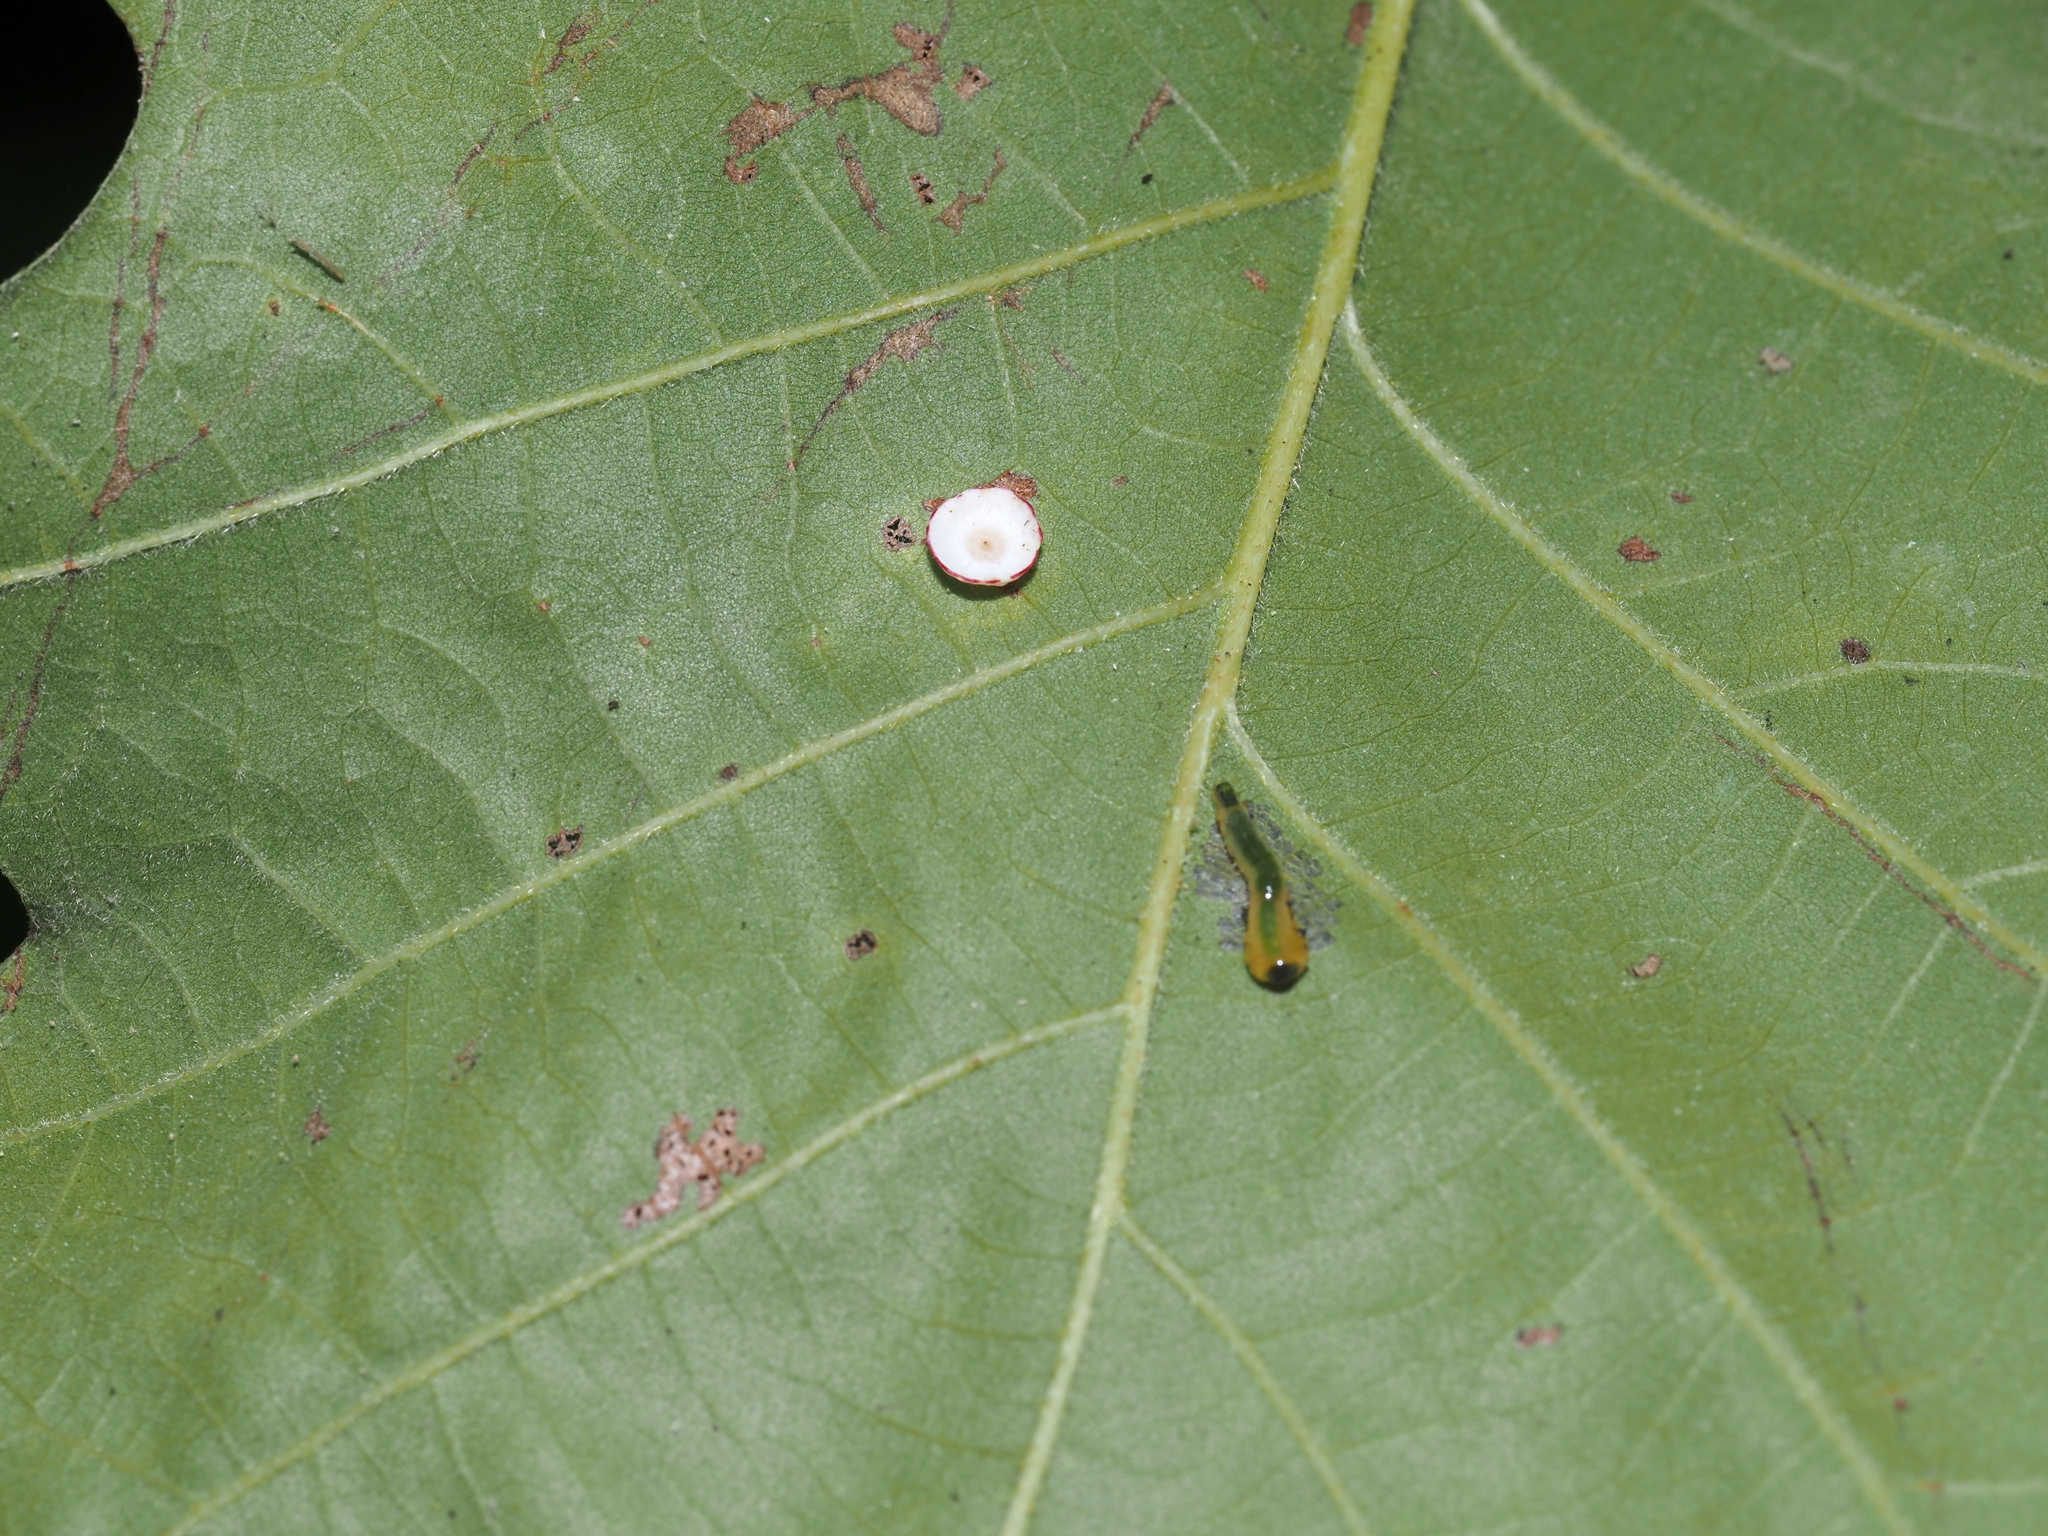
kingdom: Animalia
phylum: Arthropoda
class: Insecta
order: Hymenoptera
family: Cynipidae
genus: Phylloteras
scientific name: Phylloteras
